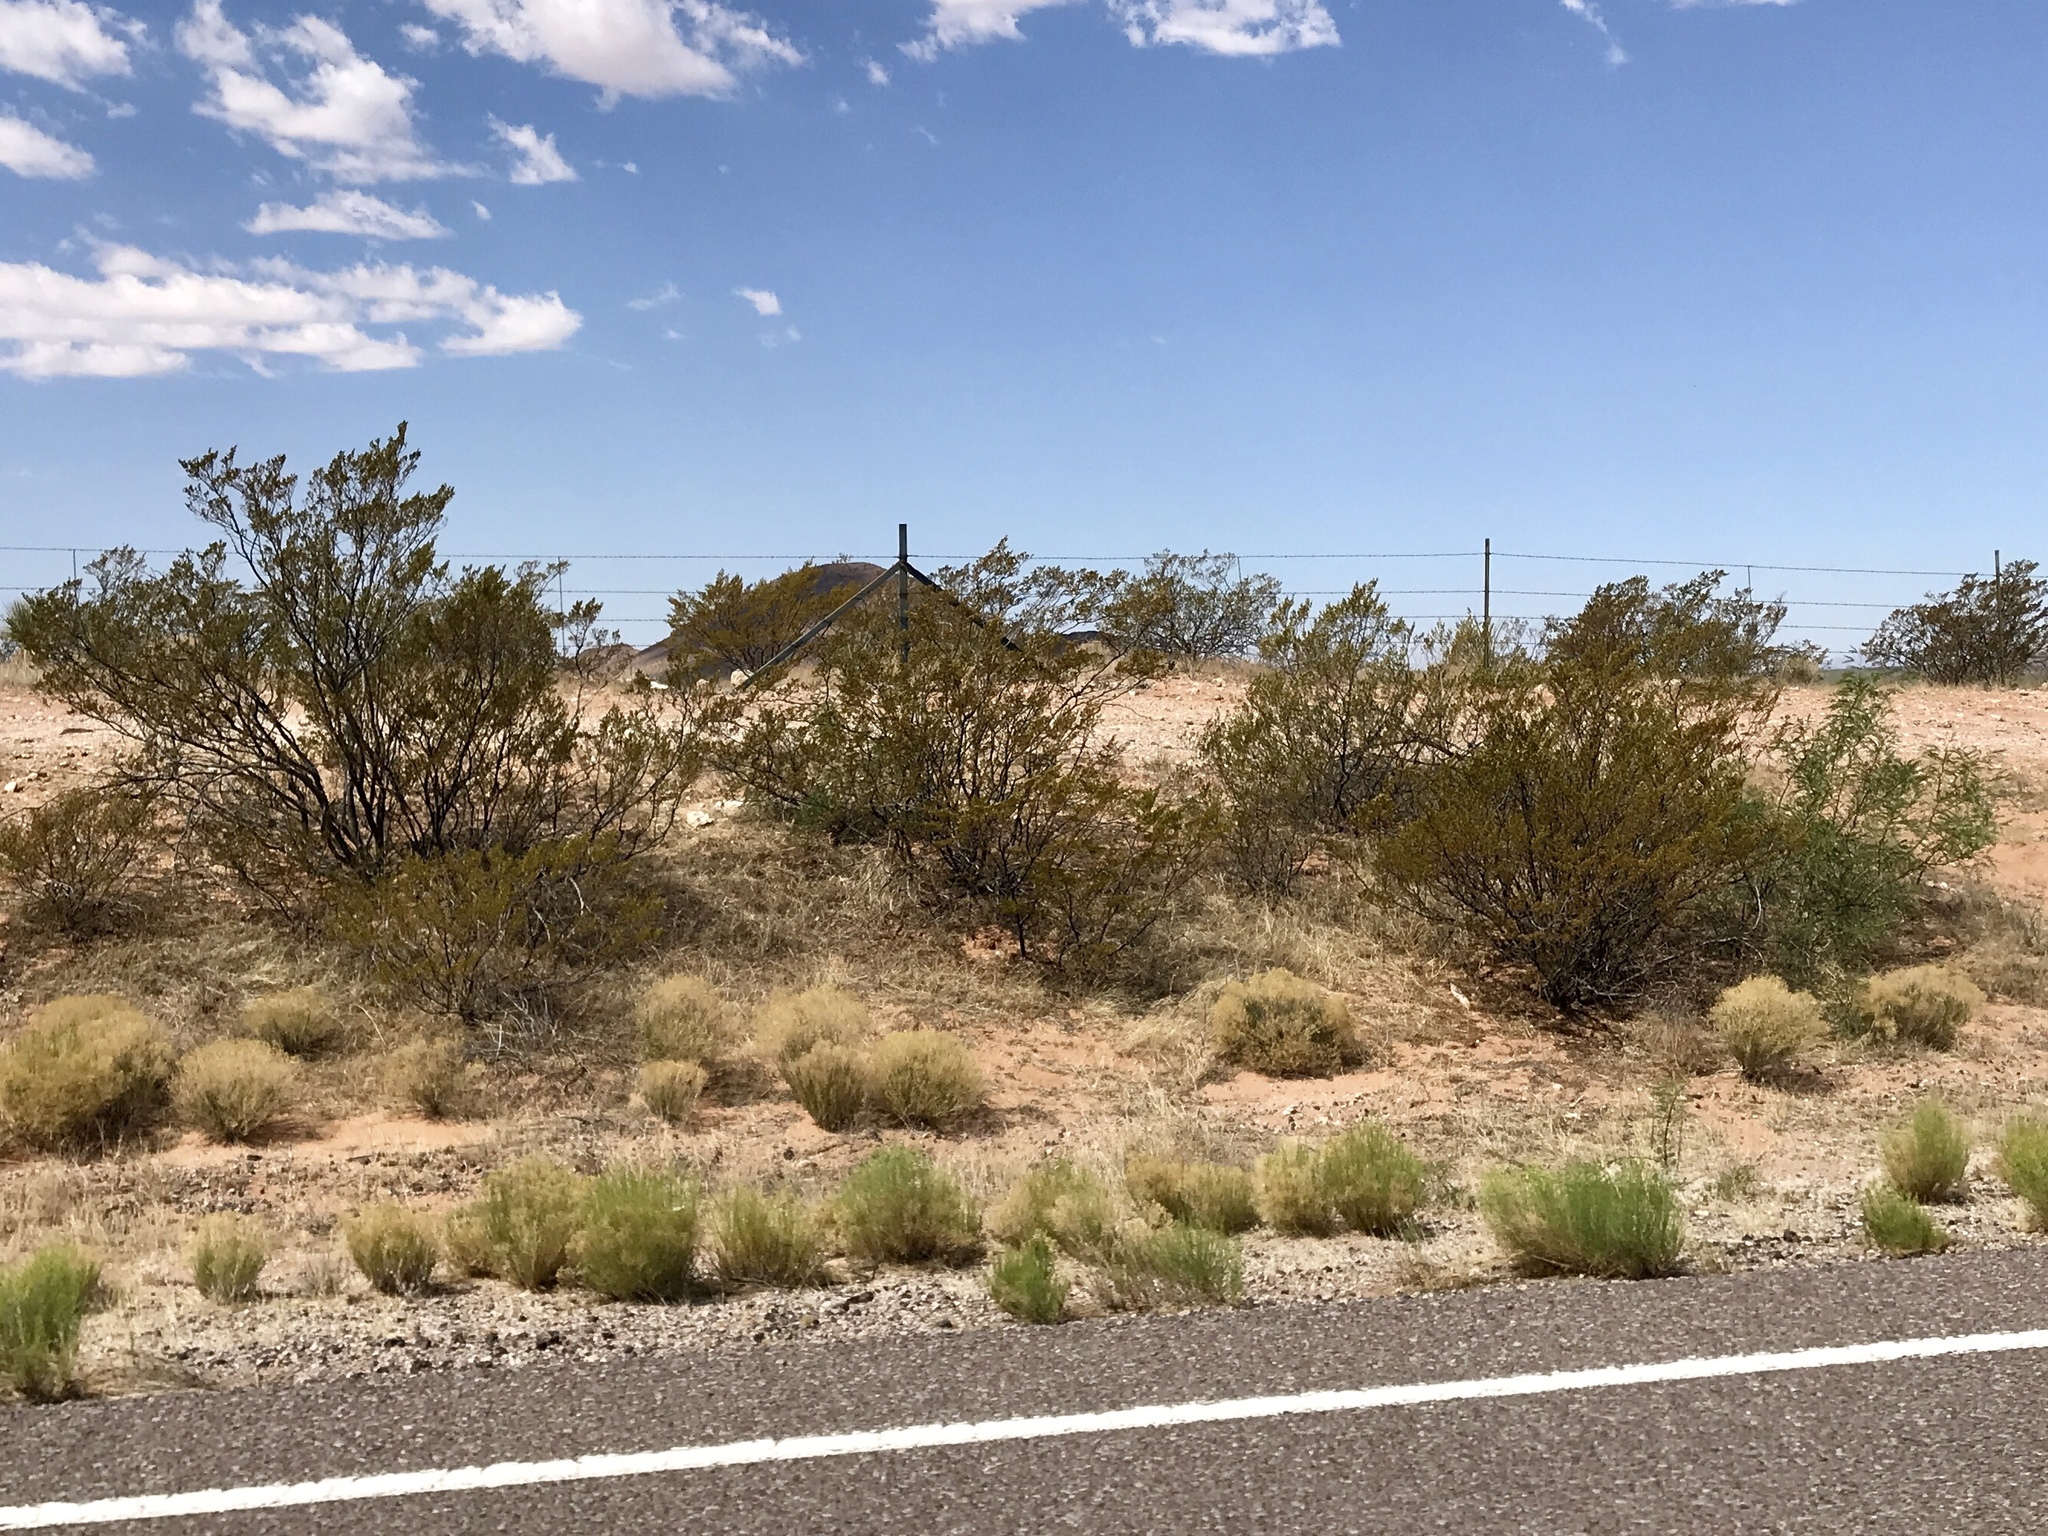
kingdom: Plantae
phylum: Tracheophyta
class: Magnoliopsida
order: Zygophyllales
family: Zygophyllaceae
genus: Larrea
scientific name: Larrea tridentata
